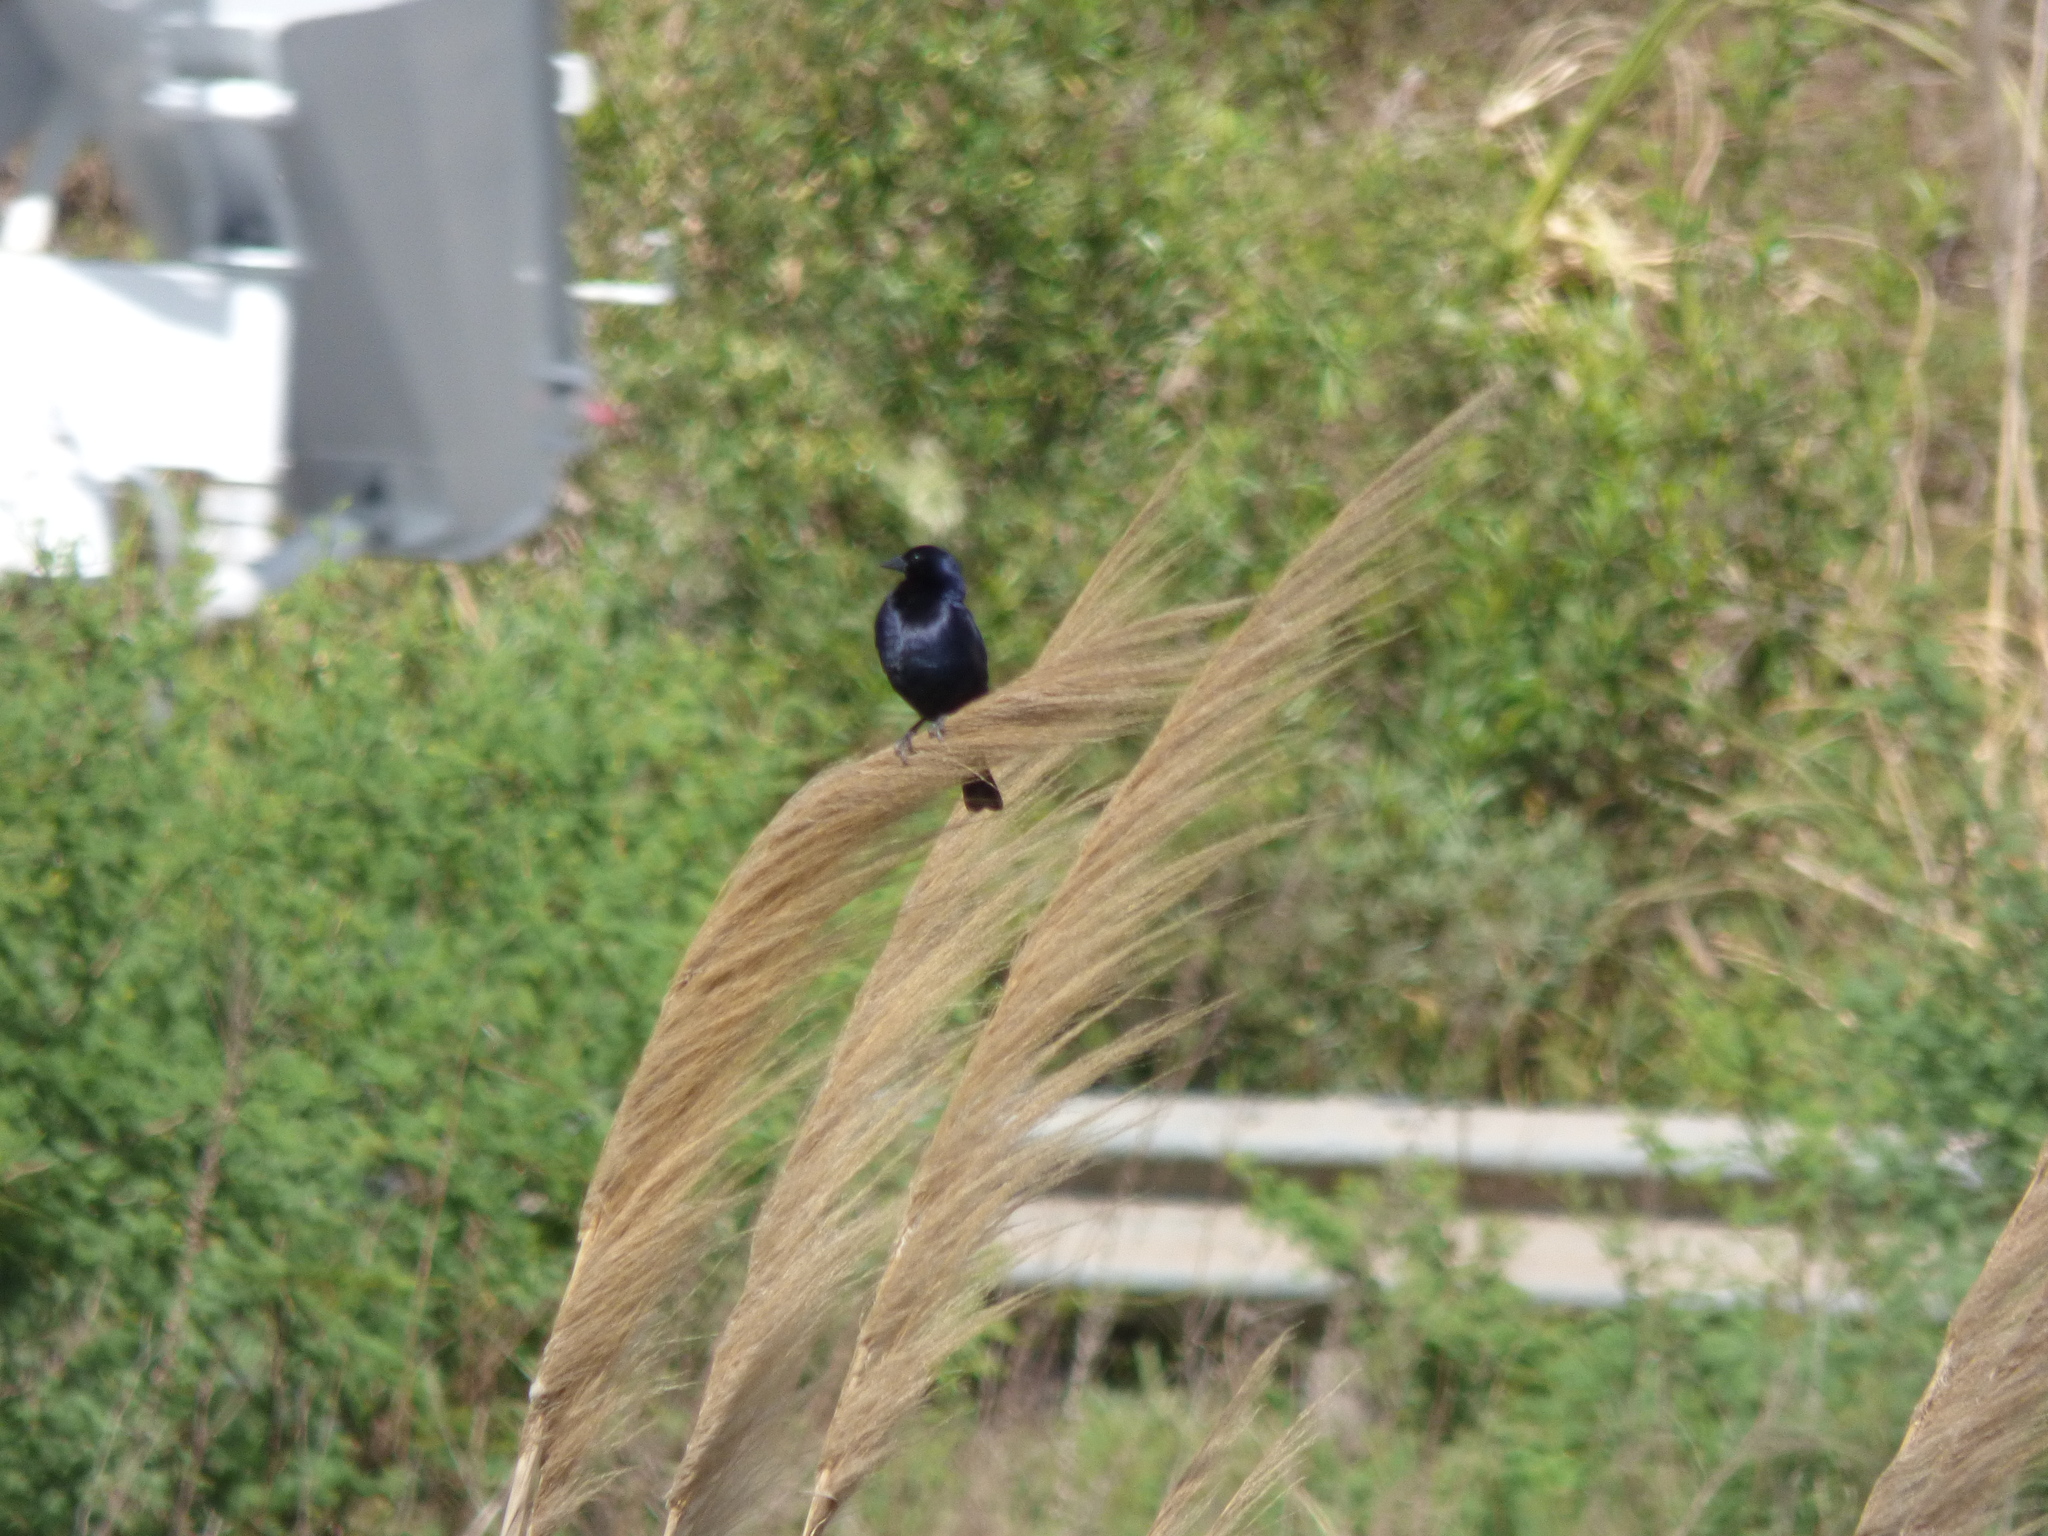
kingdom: Animalia
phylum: Chordata
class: Aves
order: Passeriformes
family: Icteridae
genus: Molothrus
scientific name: Molothrus bonariensis
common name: Shiny cowbird
